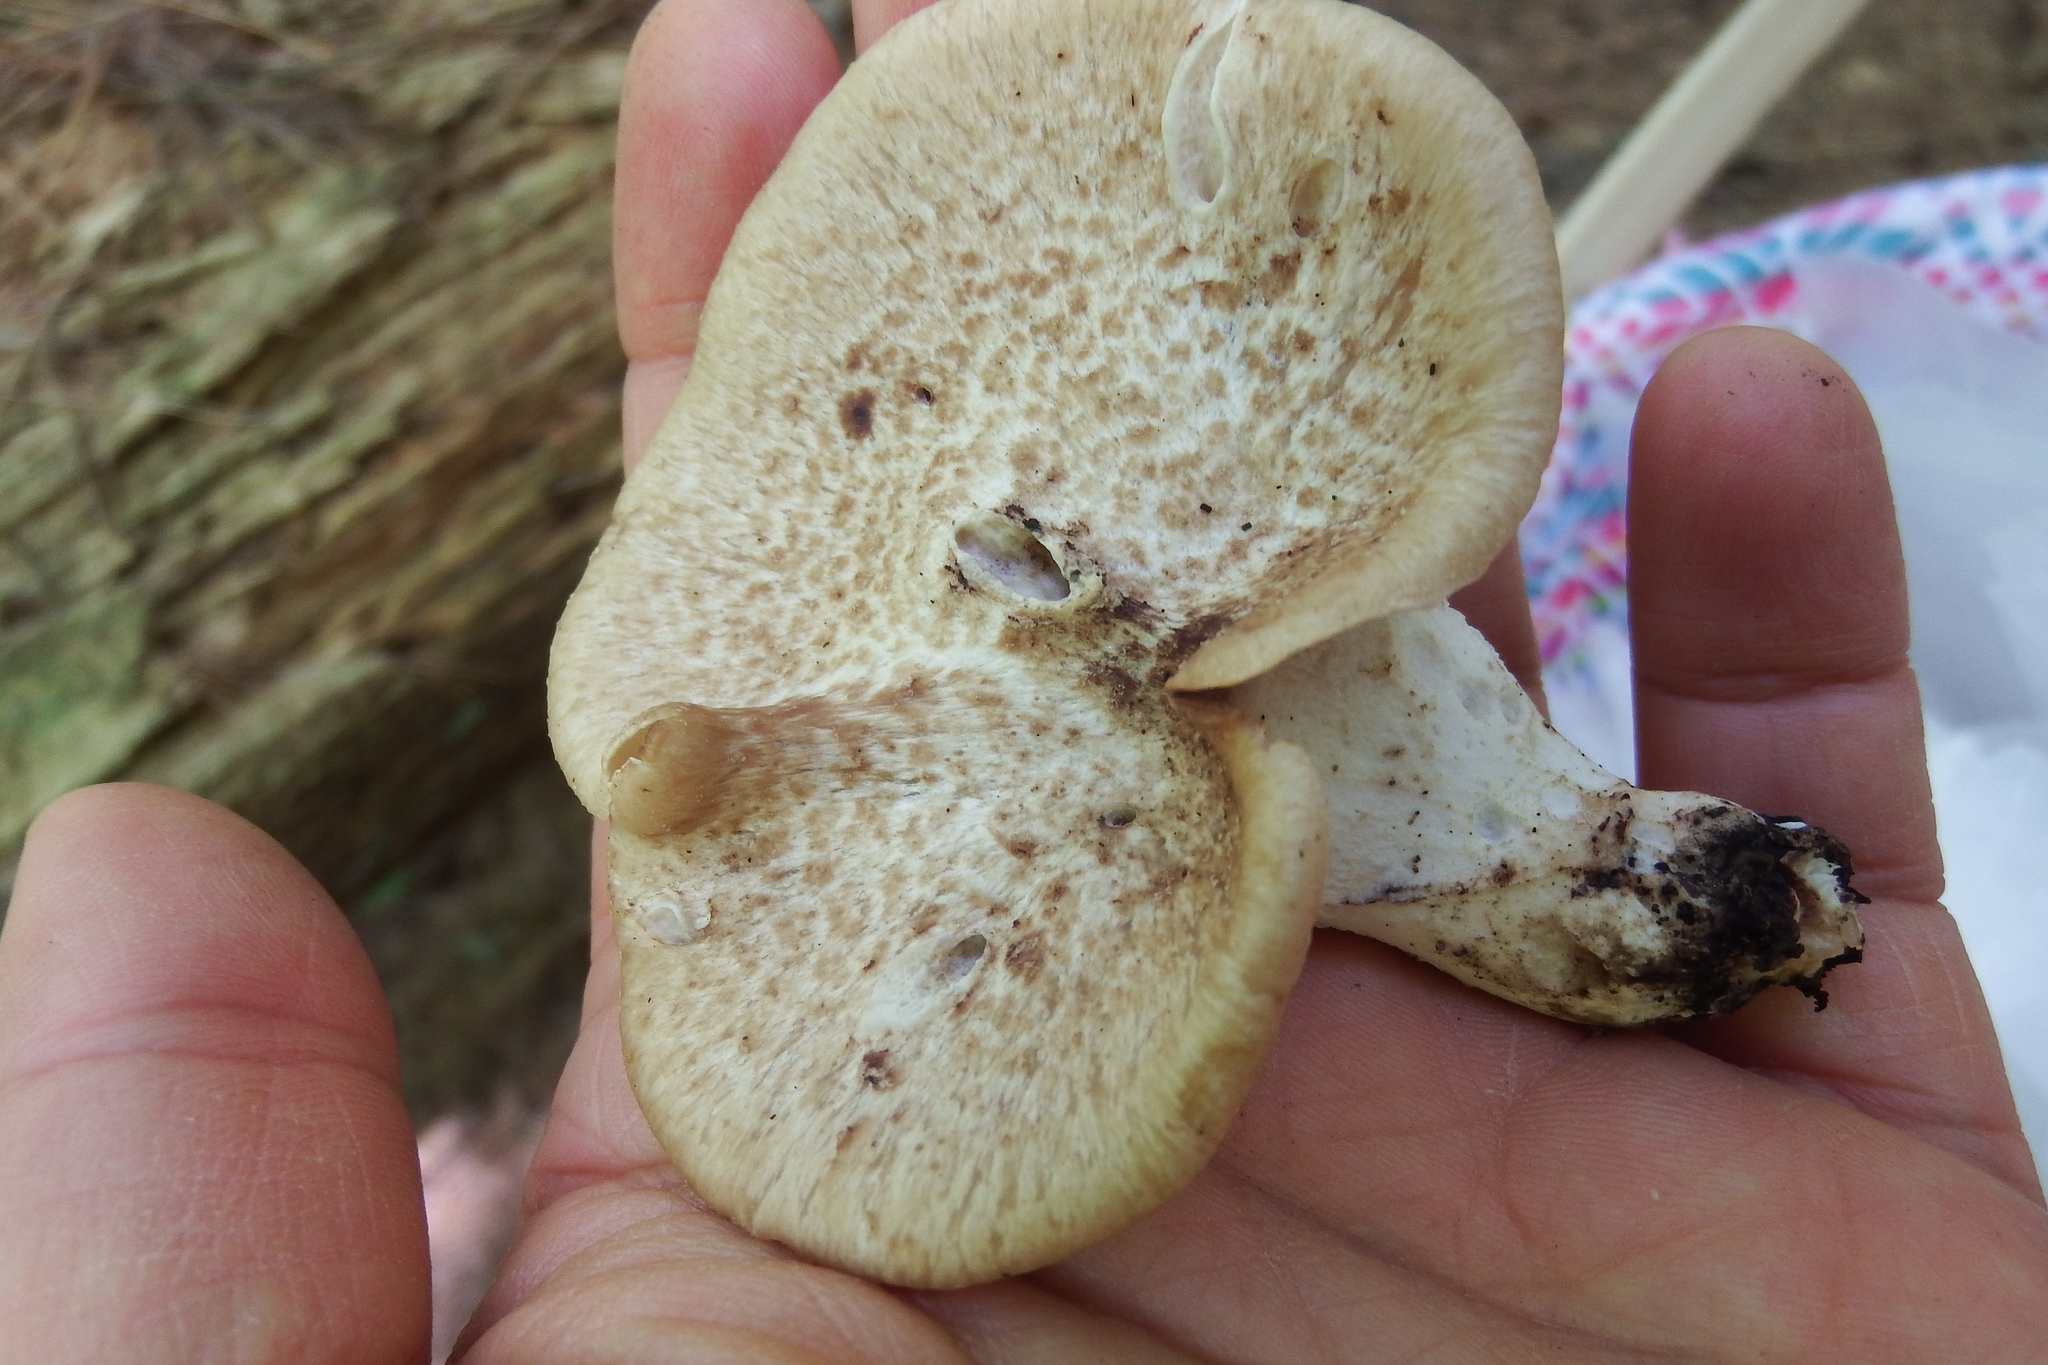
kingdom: Fungi
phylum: Basidiomycota
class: Agaricomycetes
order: Polyporales
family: Polyporaceae
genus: Cerioporus
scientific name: Cerioporus squamosus
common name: Dryad's saddle
